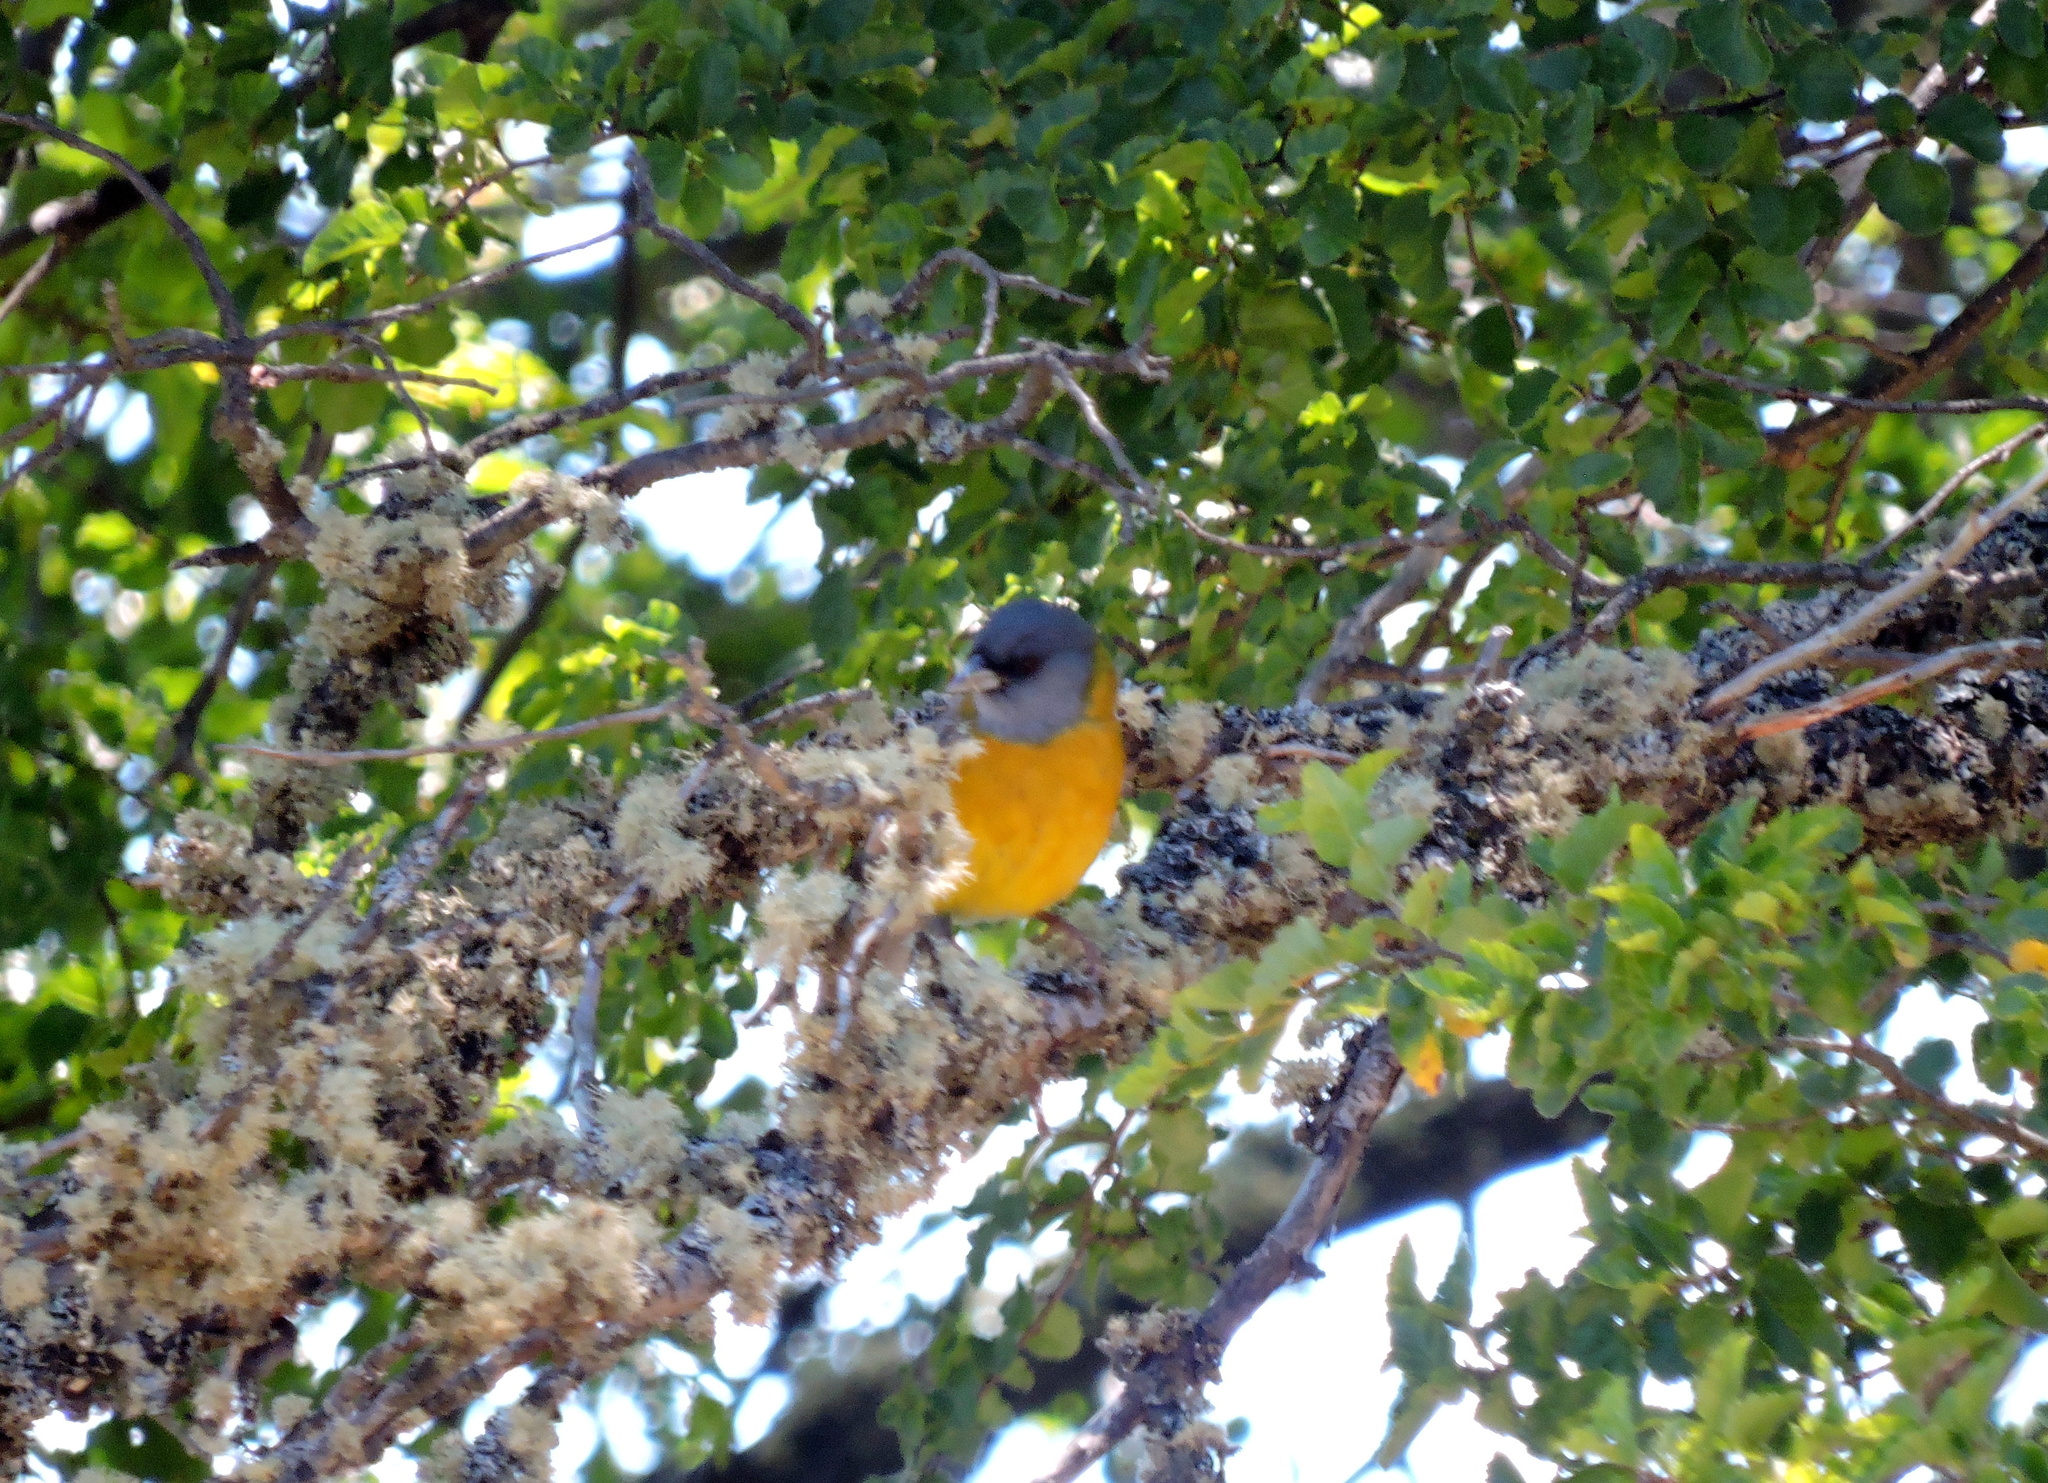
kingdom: Animalia
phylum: Chordata
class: Aves
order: Passeriformes
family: Thraupidae
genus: Phrygilus
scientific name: Phrygilus patagonicus
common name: Patagonian sierra finch
